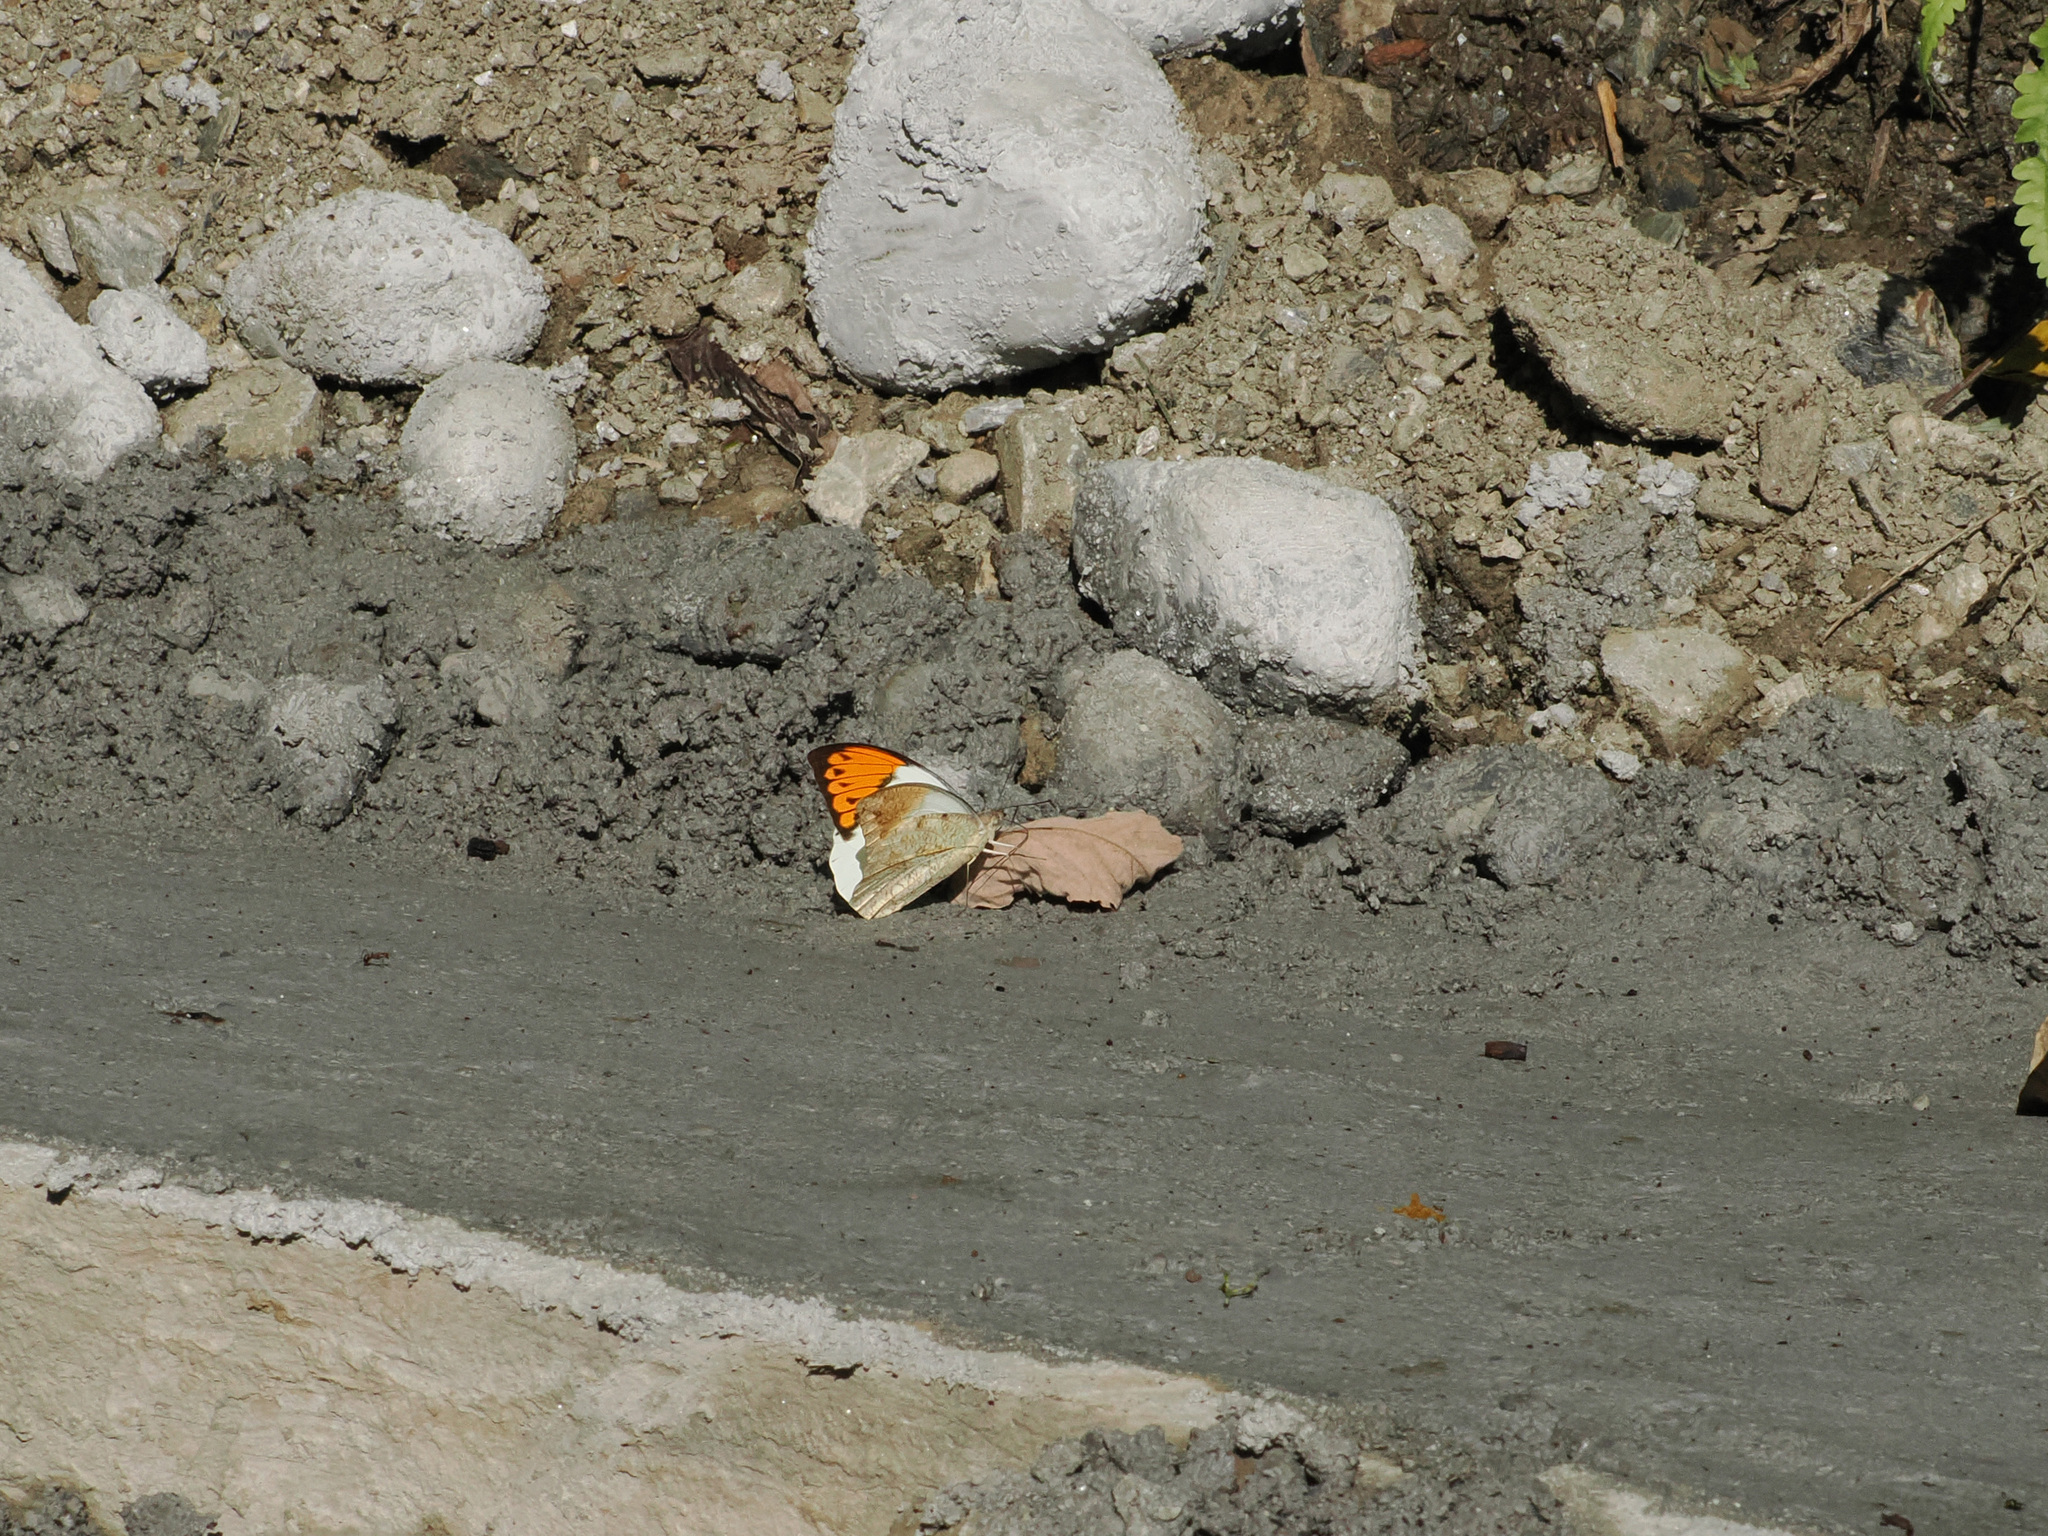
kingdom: Animalia
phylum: Arthropoda
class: Insecta
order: Lepidoptera
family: Pieridae
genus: Hebomoia
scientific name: Hebomoia glaucippe
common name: Great orange tip
